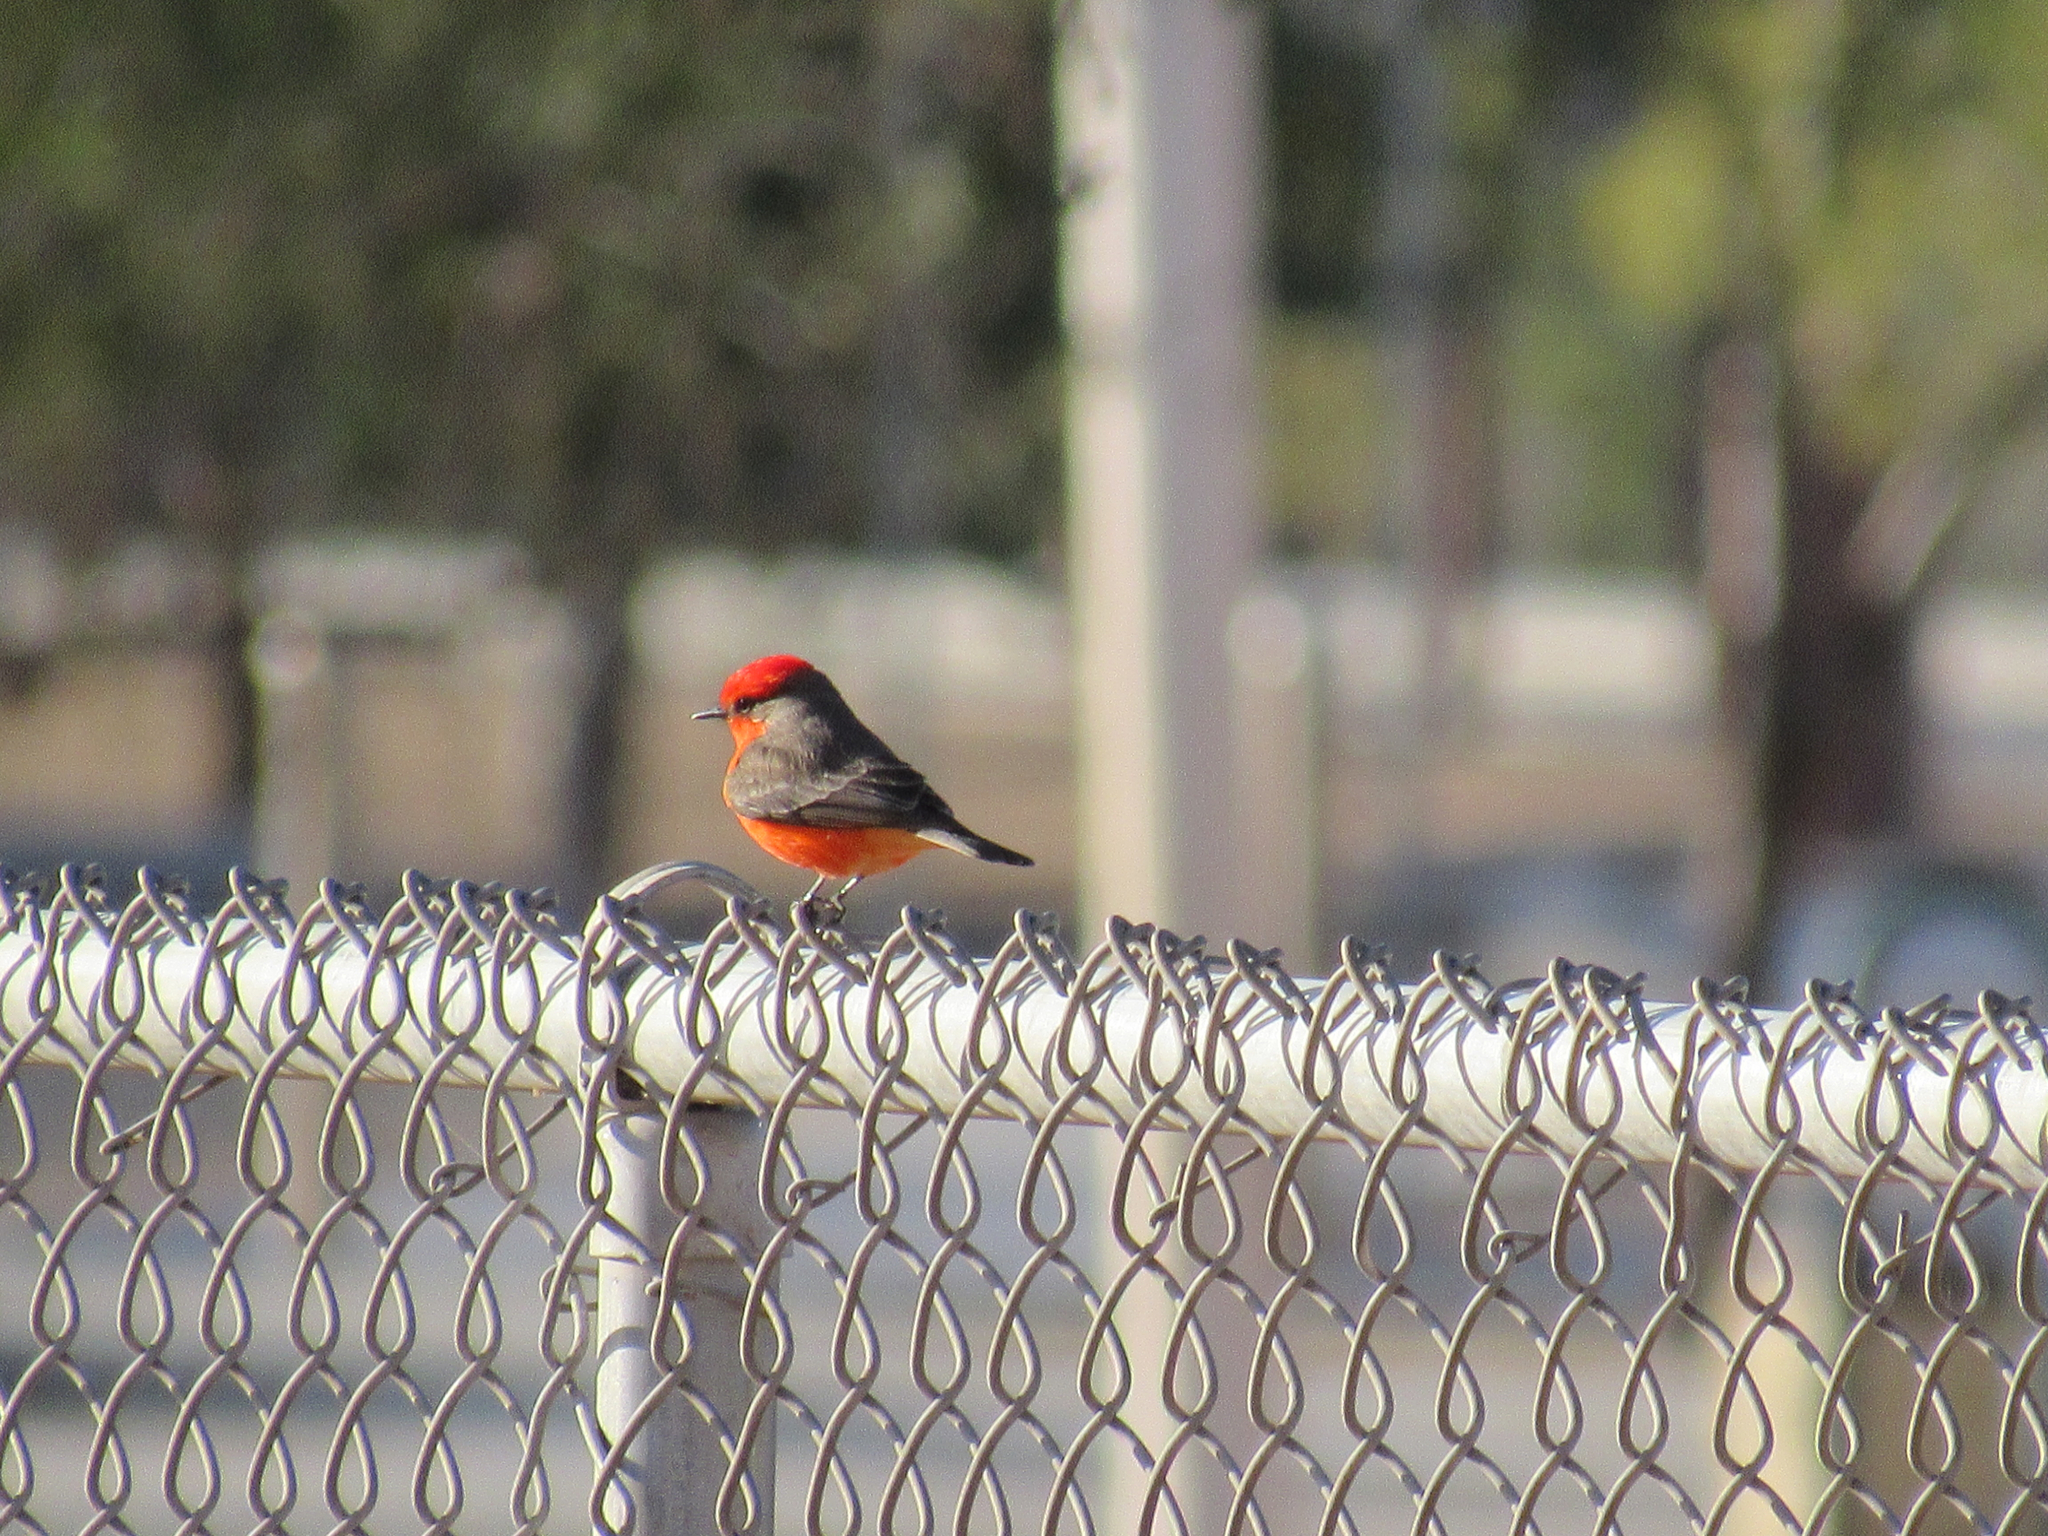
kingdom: Animalia
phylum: Chordata
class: Aves
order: Passeriformes
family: Tyrannidae
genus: Pyrocephalus
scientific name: Pyrocephalus rubinus
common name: Vermilion flycatcher
